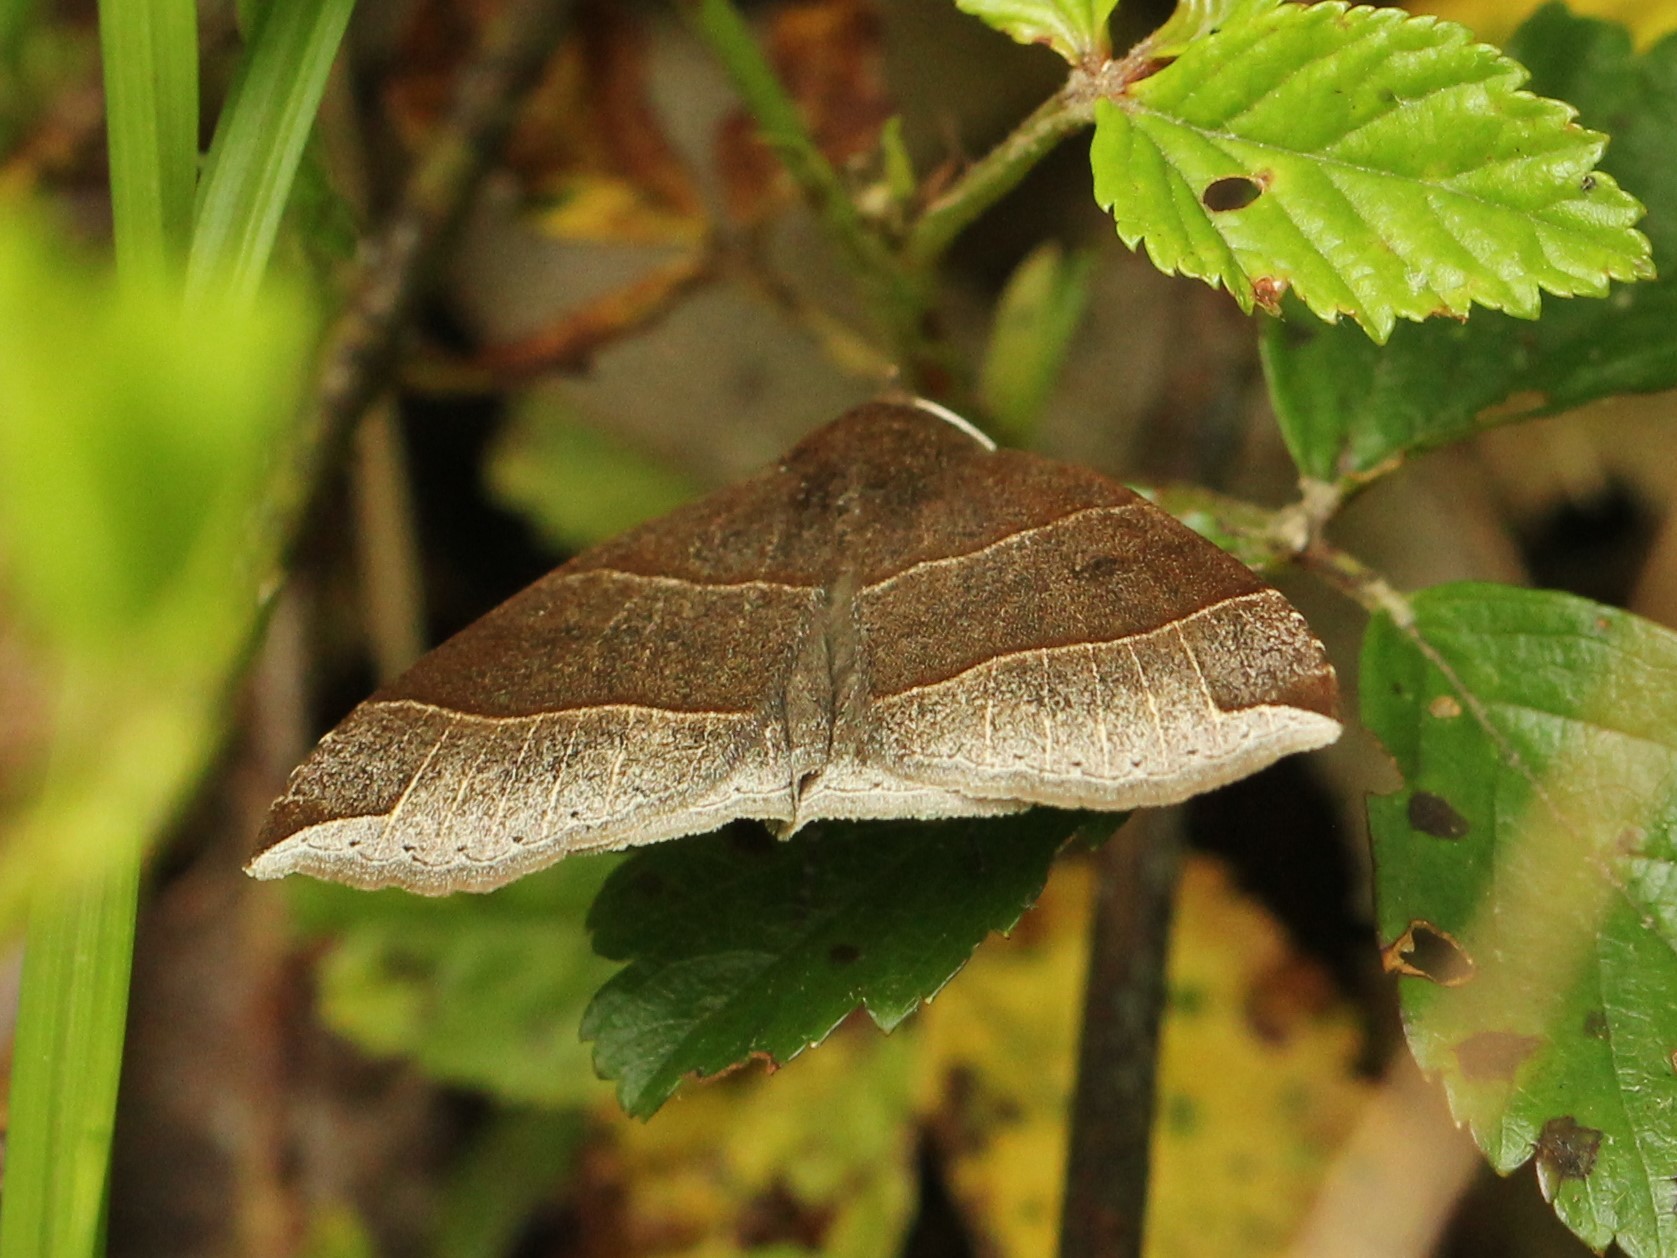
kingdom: Animalia
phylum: Arthropoda
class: Insecta
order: Lepidoptera
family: Erebidae
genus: Parallelia
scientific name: Parallelia bistriaris
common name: Maple looper moth
